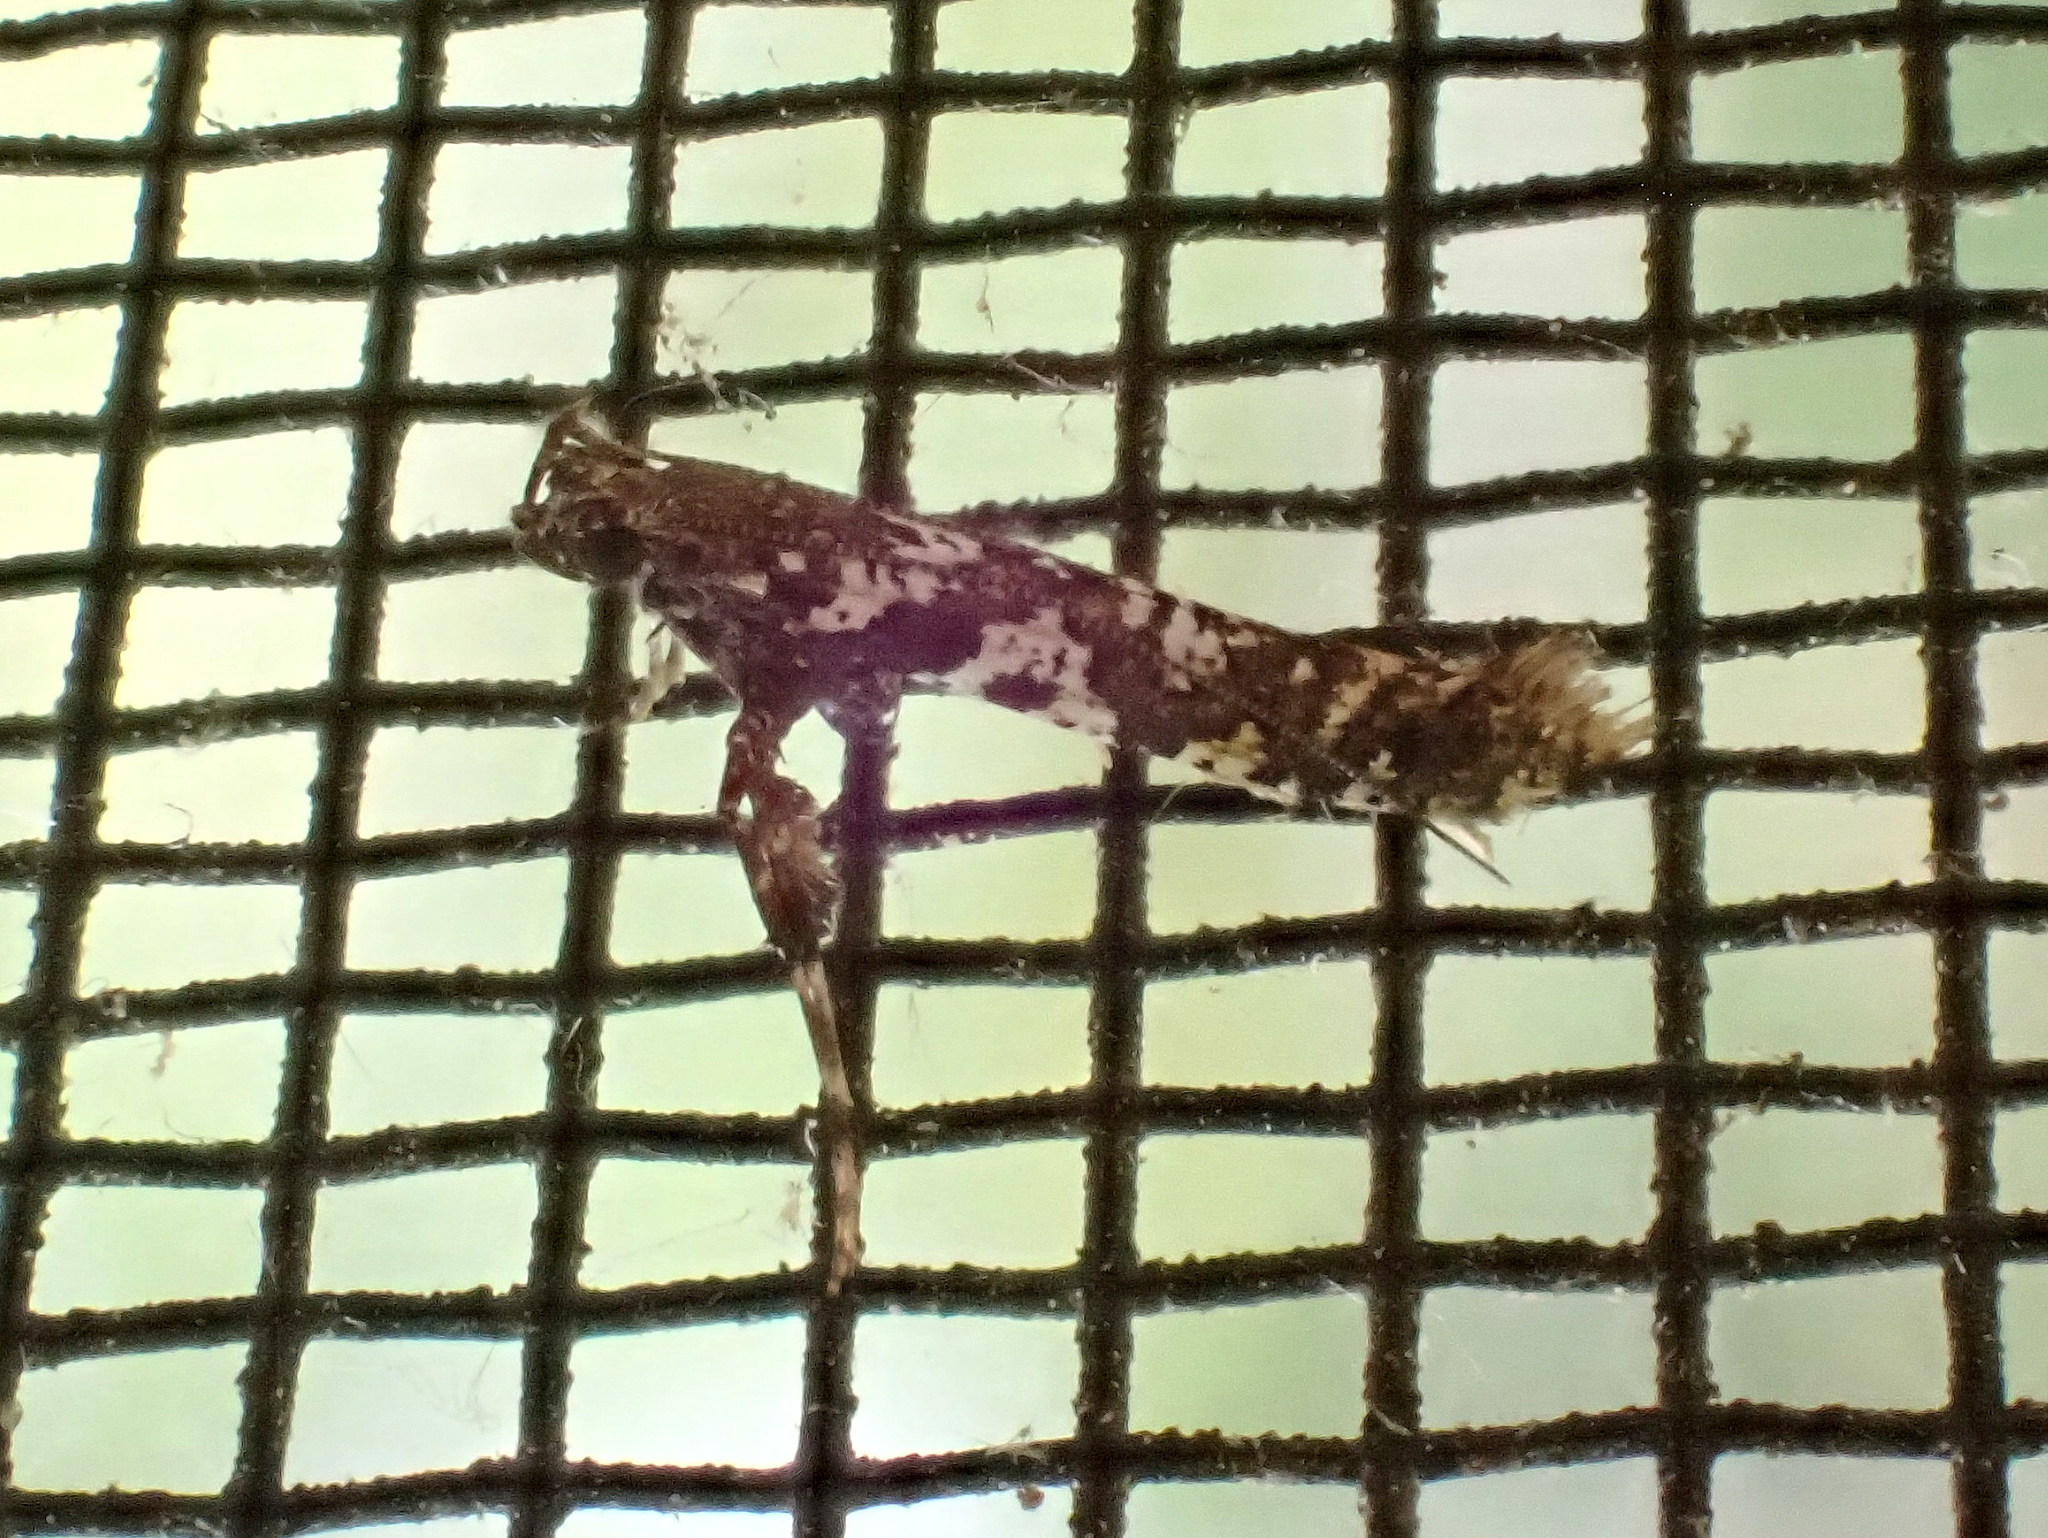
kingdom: Animalia
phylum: Arthropoda
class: Insecta
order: Lepidoptera
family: Gracillariidae
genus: Caloptilia
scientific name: Caloptilia serotinella
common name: Cherry leafroller moth
